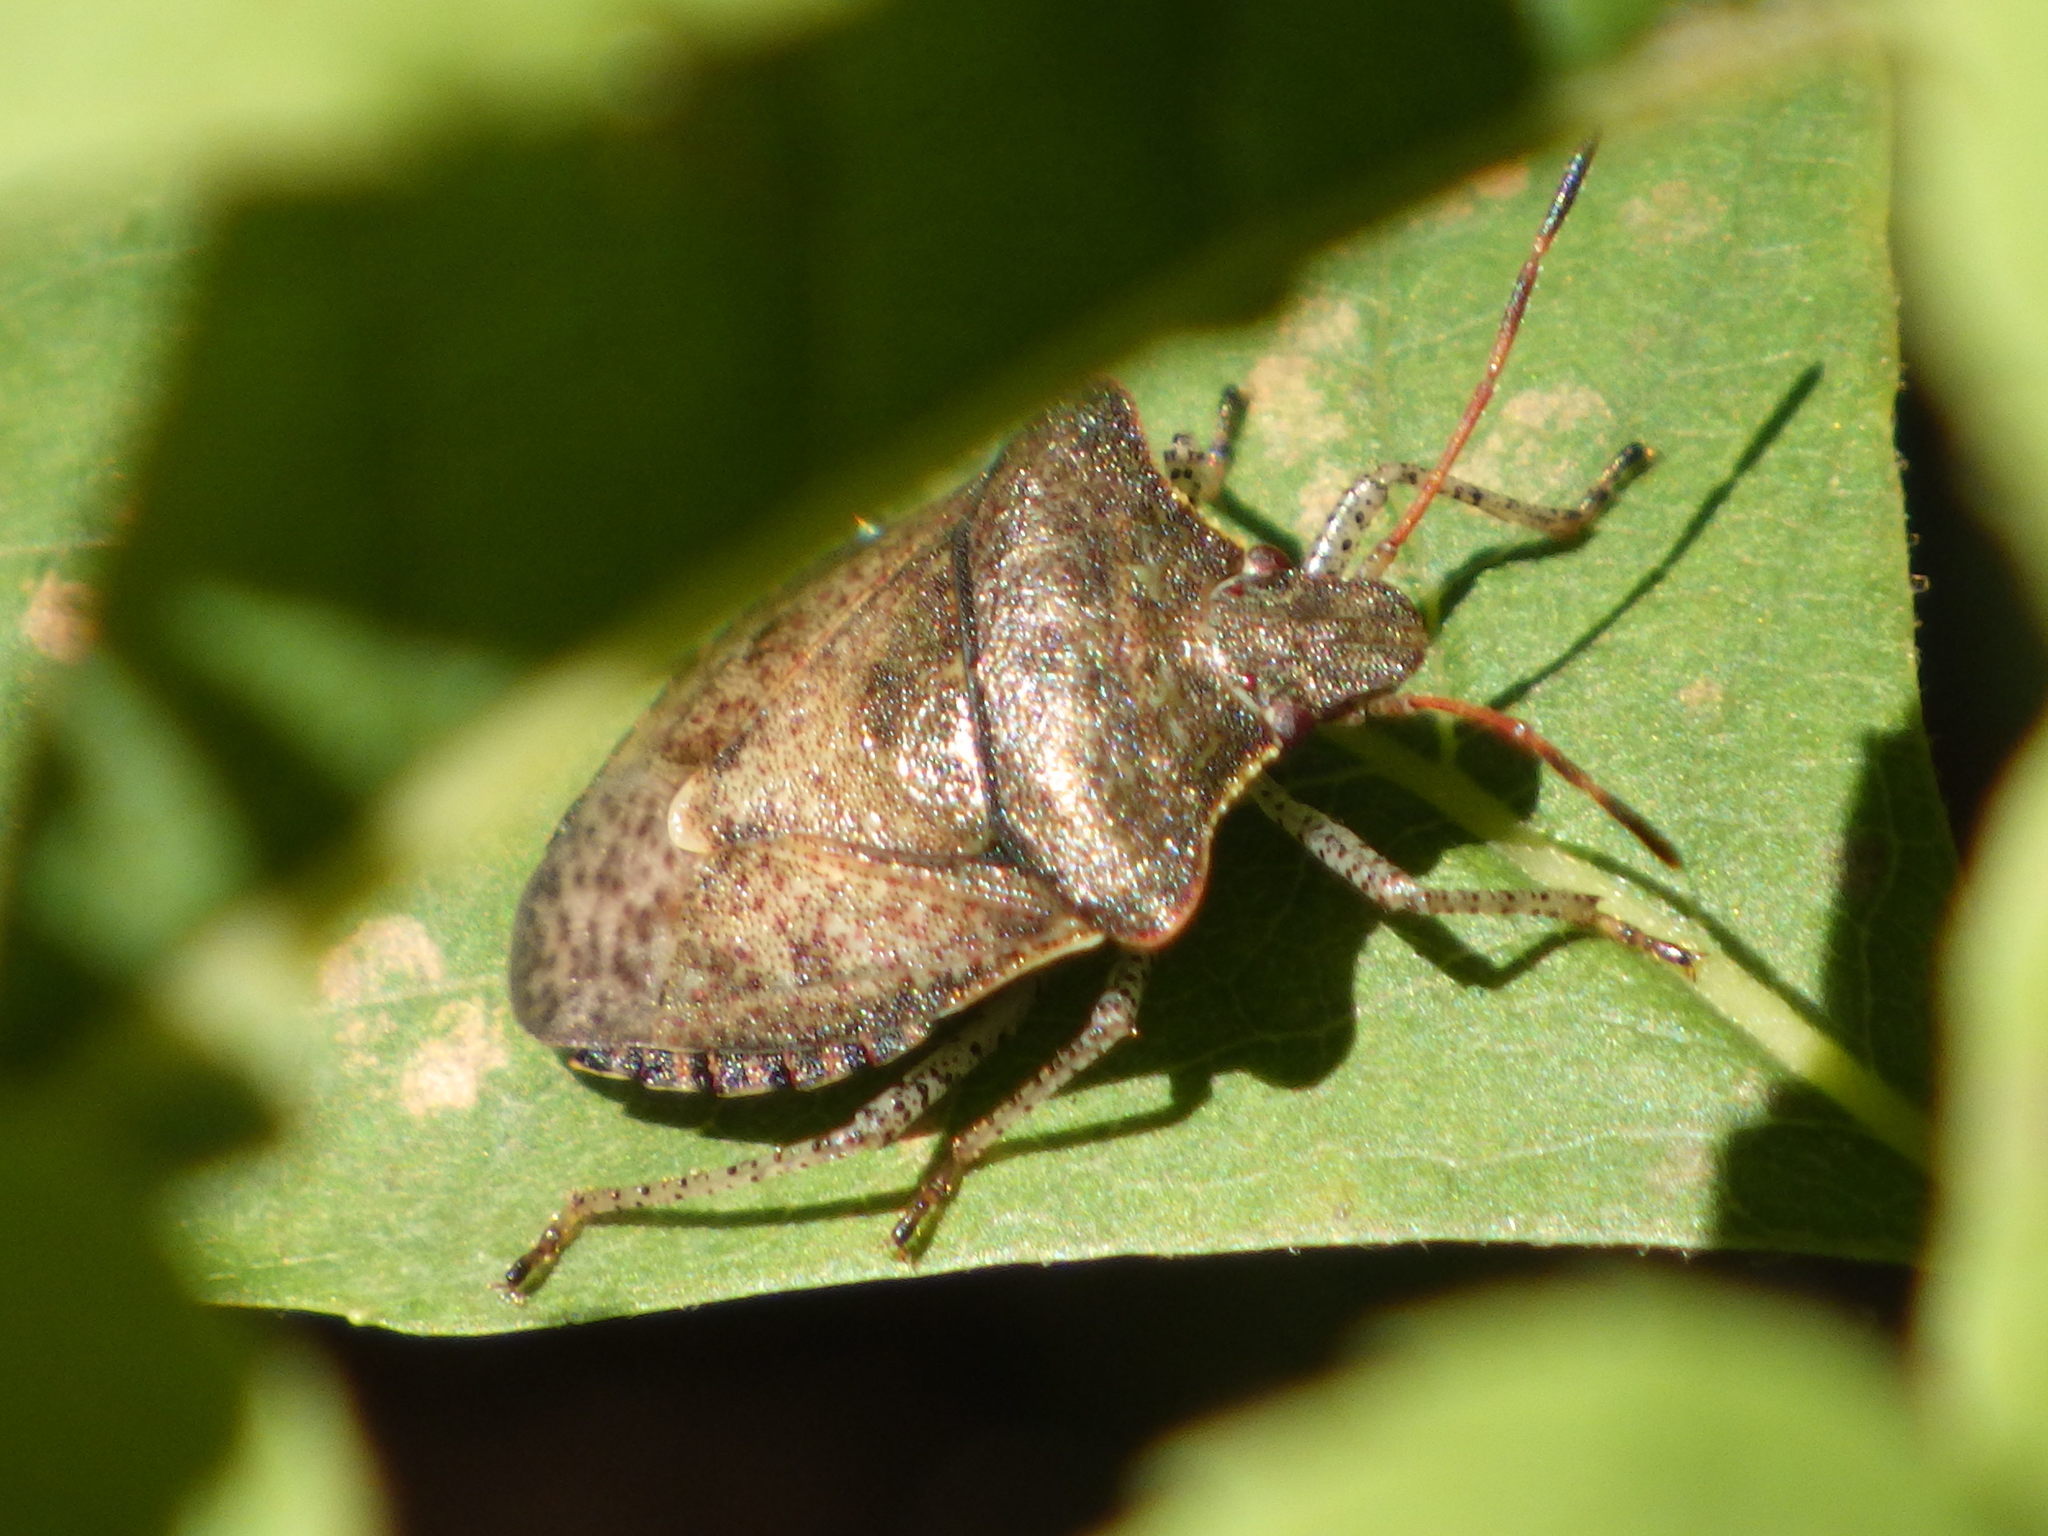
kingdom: Animalia
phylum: Arthropoda
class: Insecta
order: Hemiptera
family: Pentatomidae
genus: Euschistus
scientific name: Euschistus tristigmus
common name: Dusky stink bug
